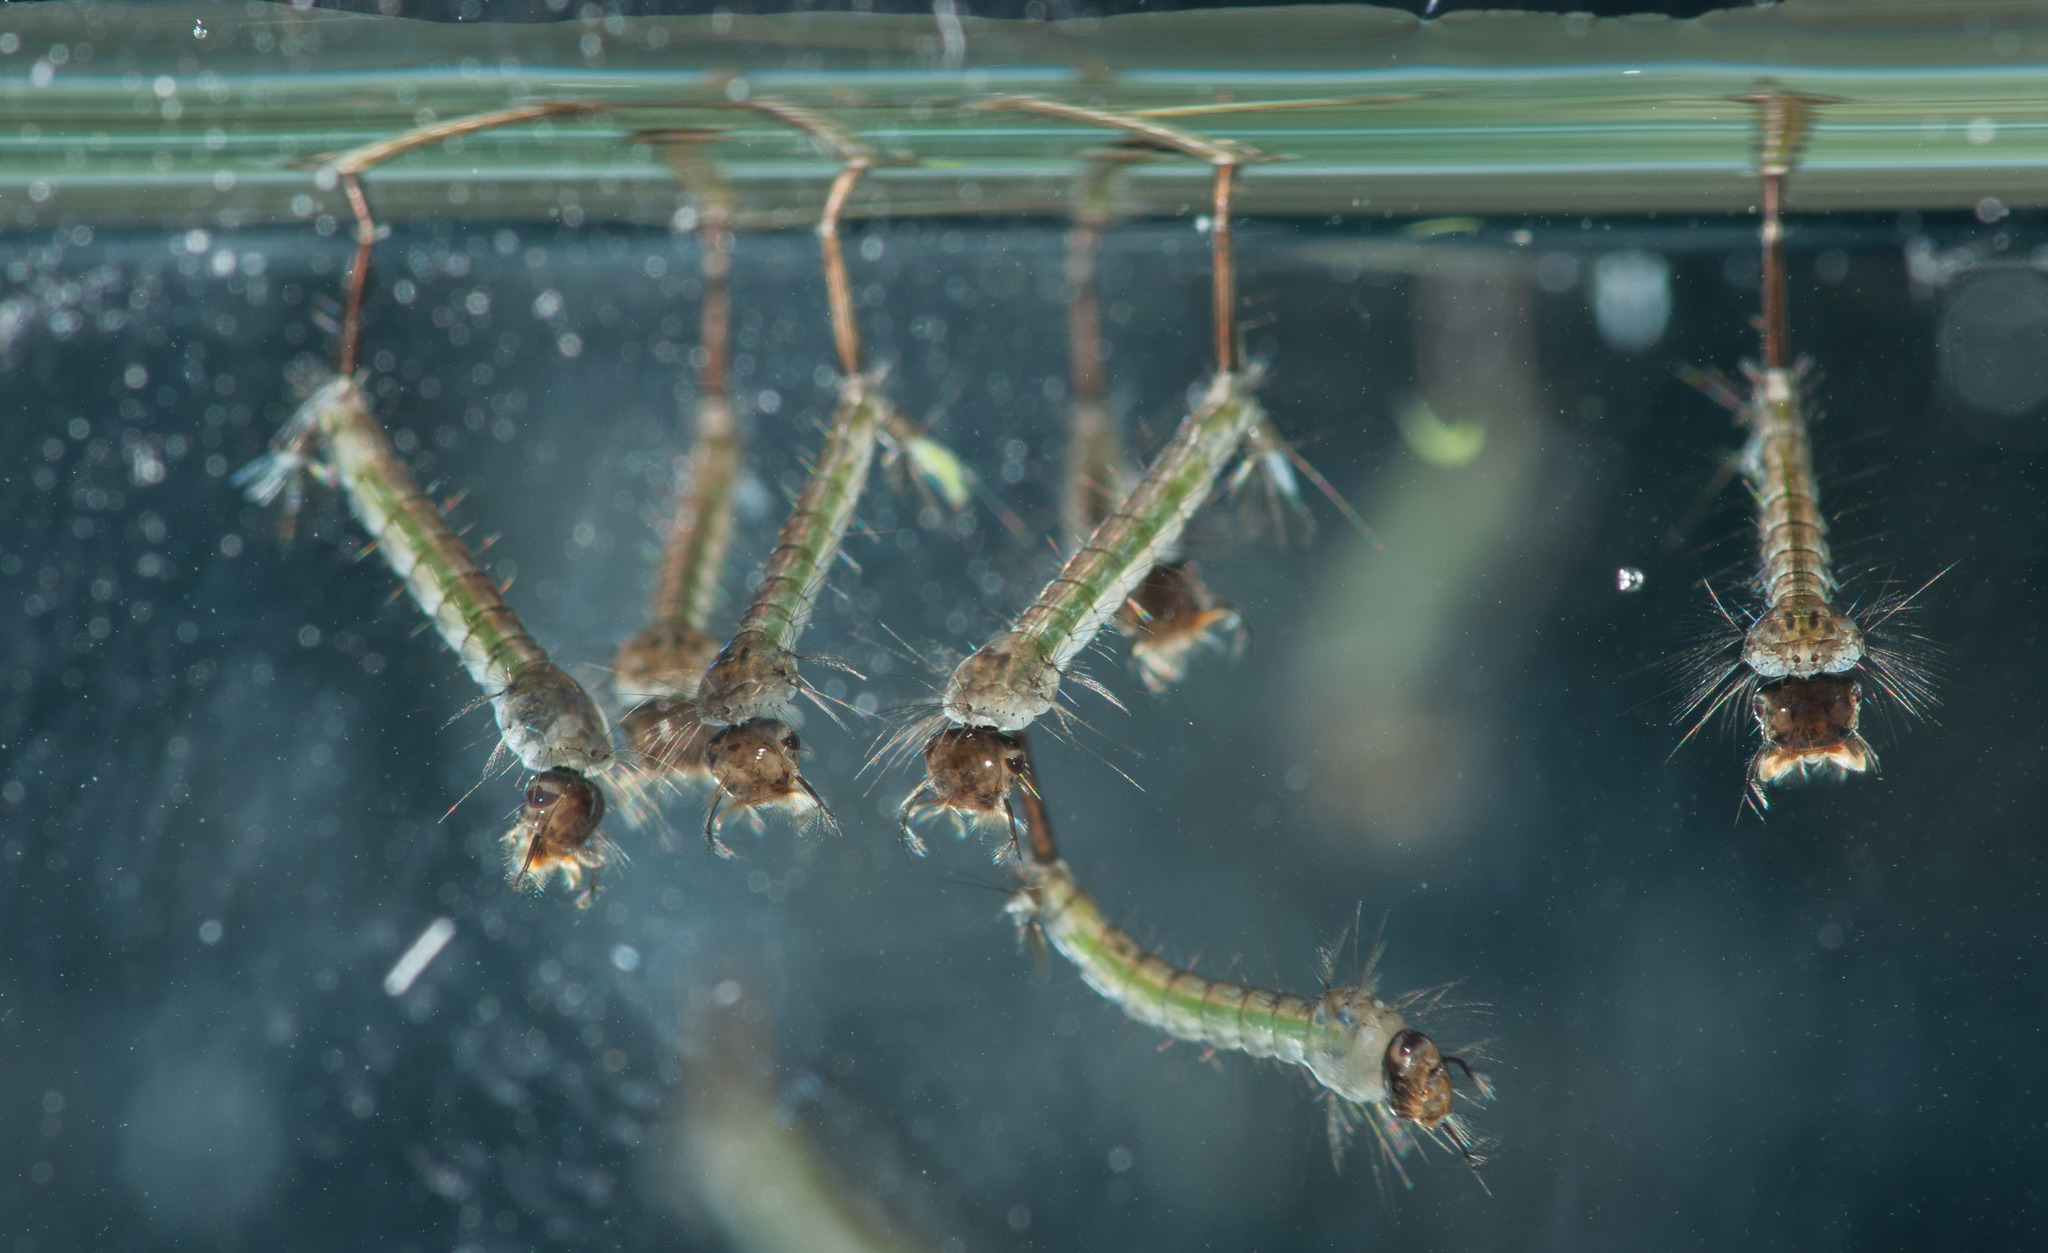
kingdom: Animalia
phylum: Arthropoda
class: Insecta
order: Diptera
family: Culicidae
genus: Culex
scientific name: Culex australicus
